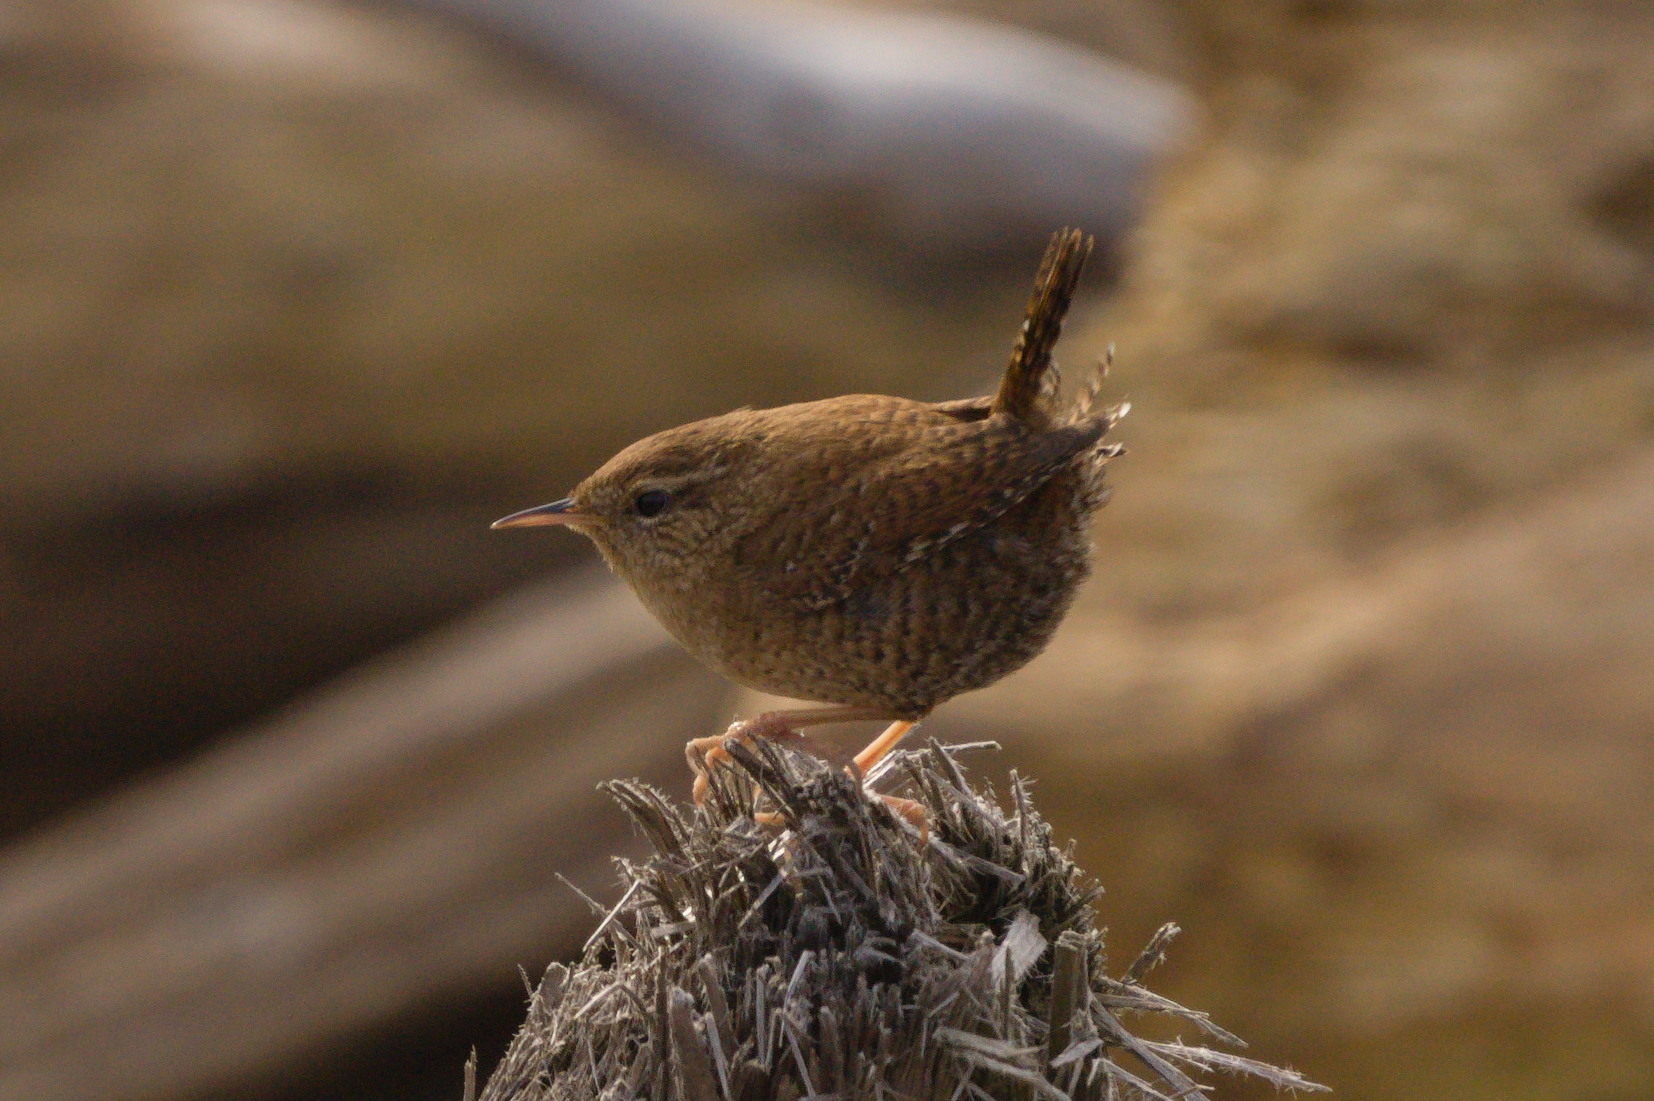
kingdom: Animalia
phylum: Chordata
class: Aves
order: Passeriformes
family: Troglodytidae
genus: Troglodytes
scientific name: Troglodytes troglodytes
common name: Eurasian wren
